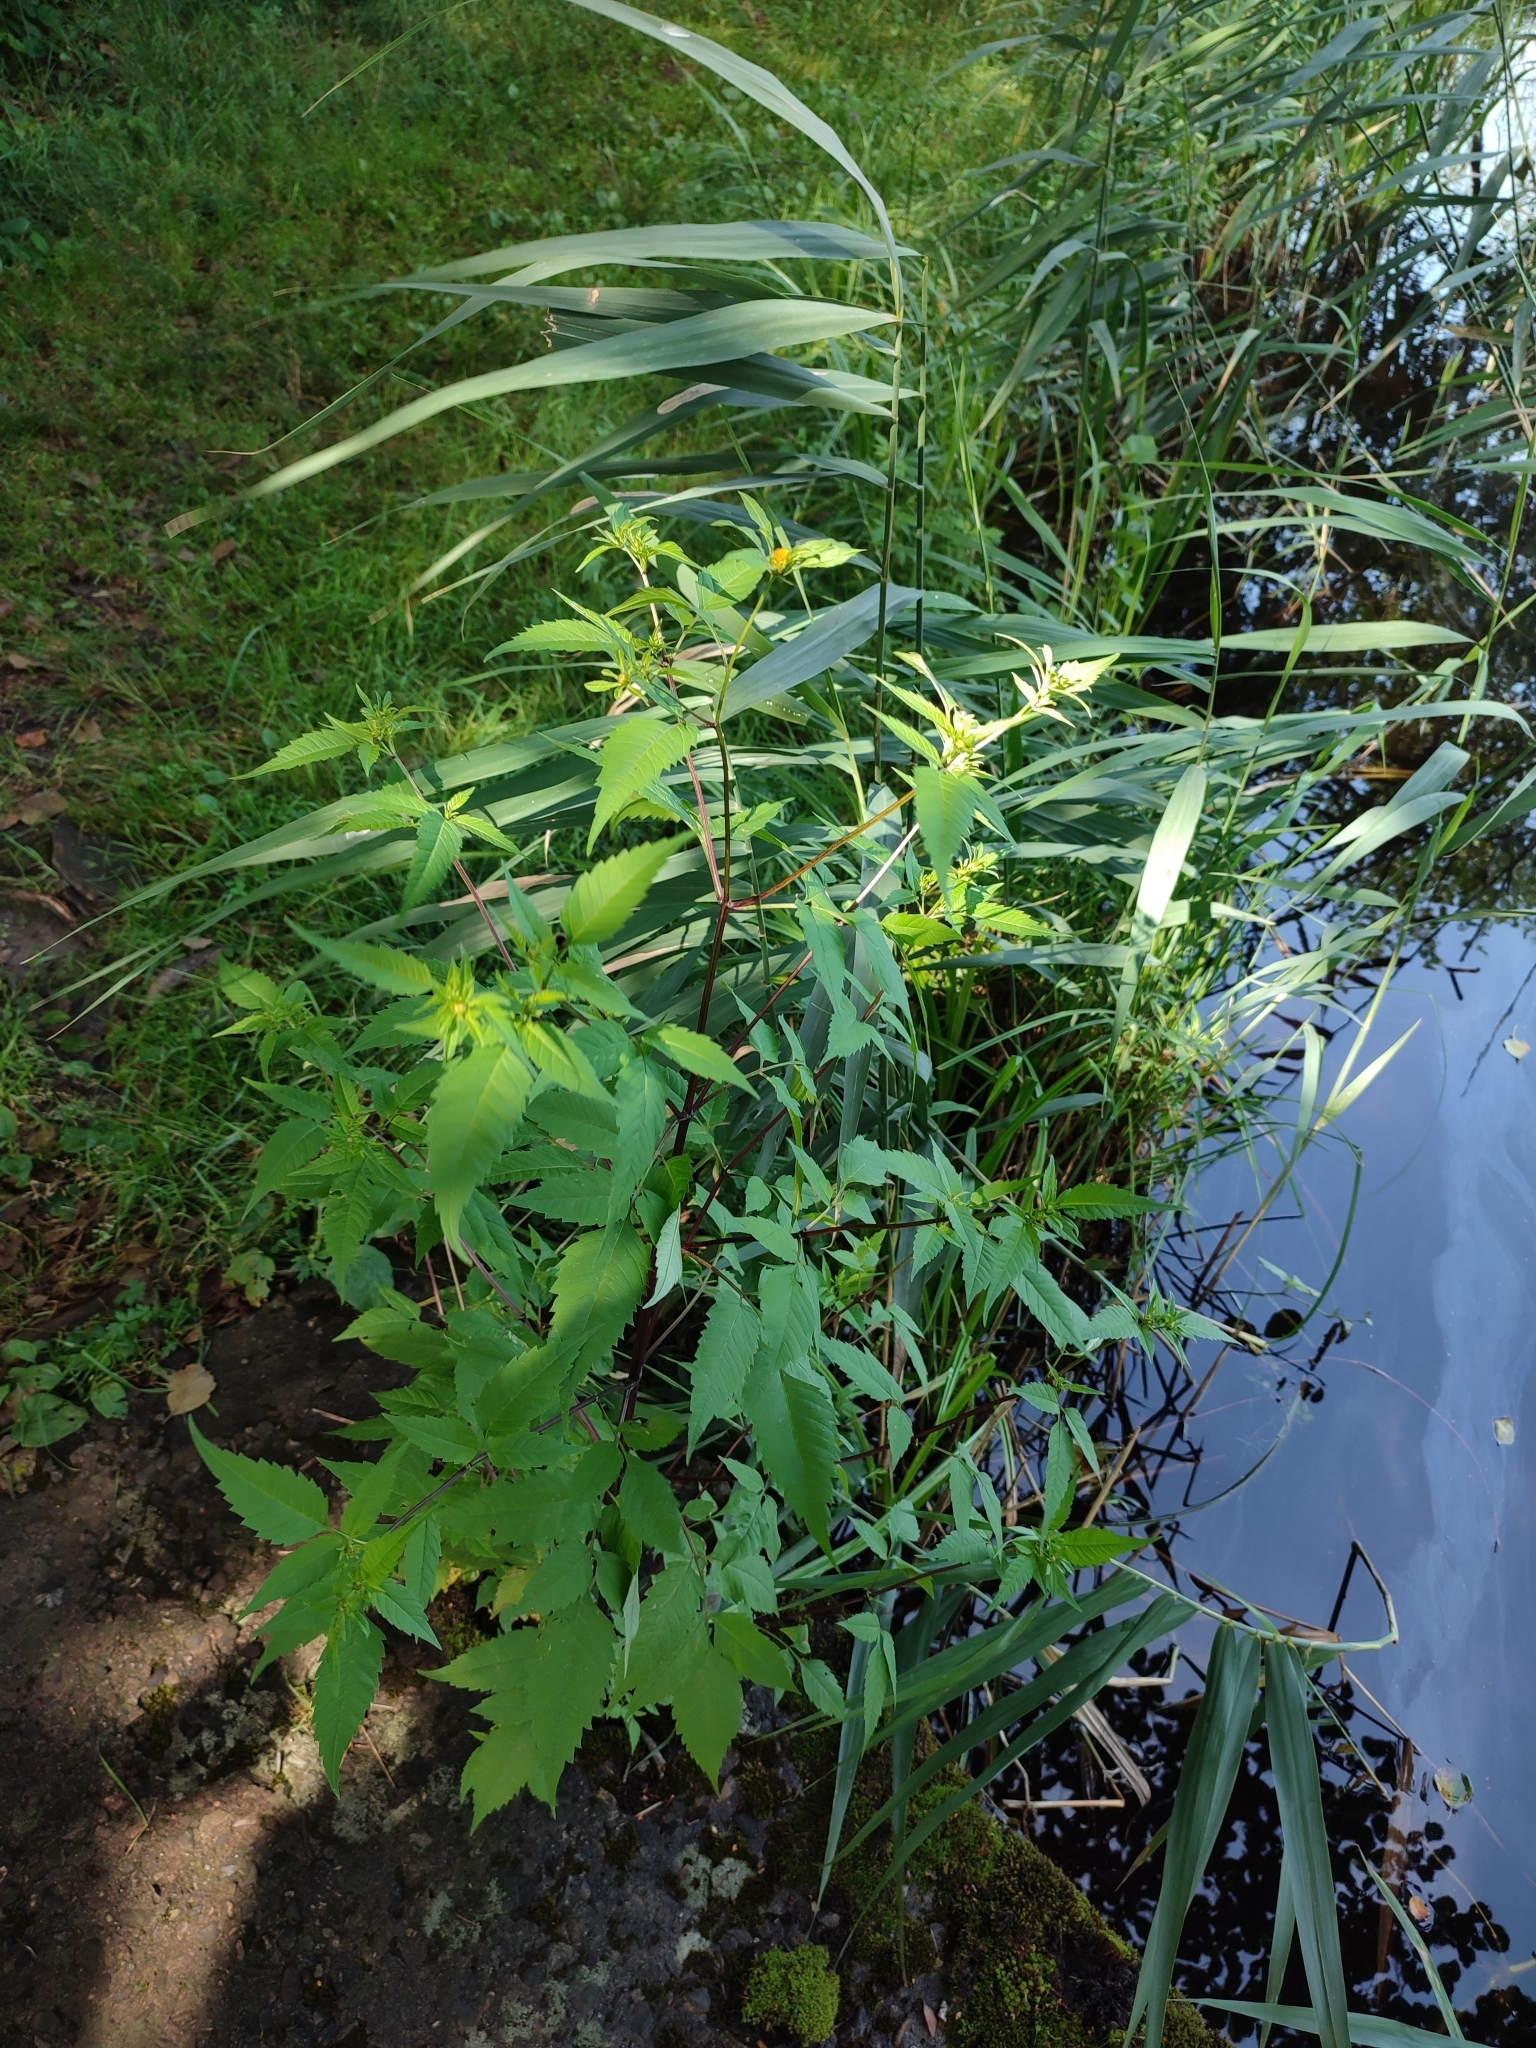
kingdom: Plantae
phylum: Tracheophyta
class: Magnoliopsida
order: Asterales
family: Asteraceae
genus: Bidens
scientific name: Bidens frondosa
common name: Beggarticks
